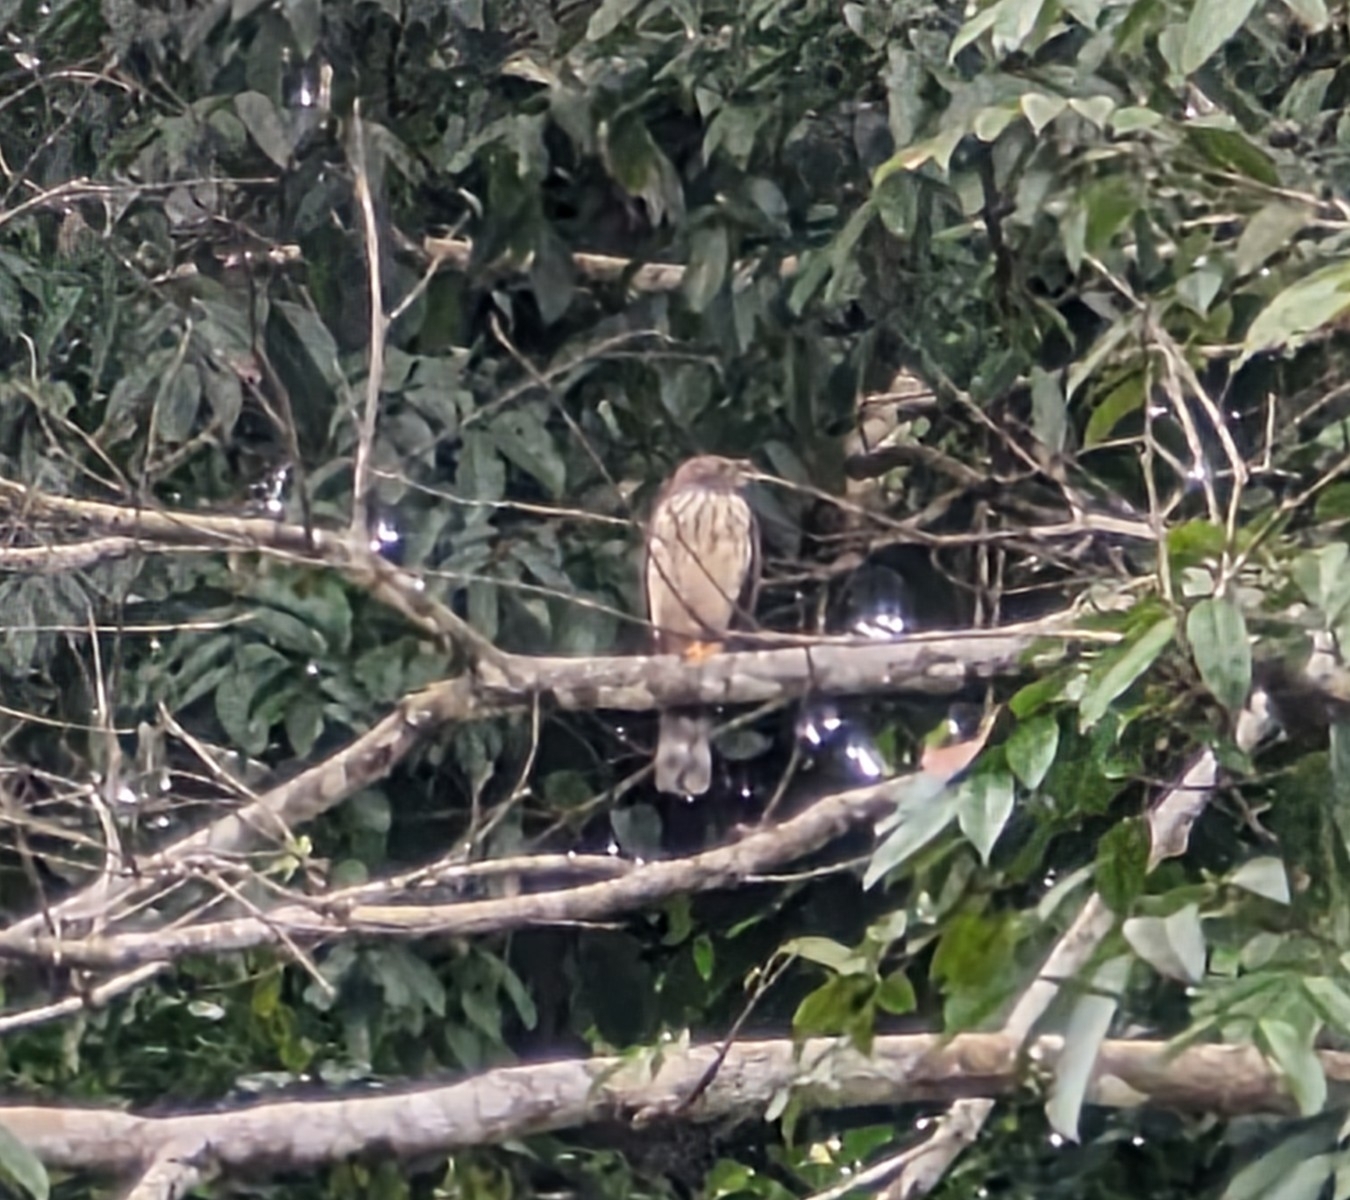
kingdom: Animalia
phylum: Chordata
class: Aves
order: Accipitriformes
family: Accipitridae
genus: Harpagus
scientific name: Harpagus bidentatus
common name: Double-toothed kite
